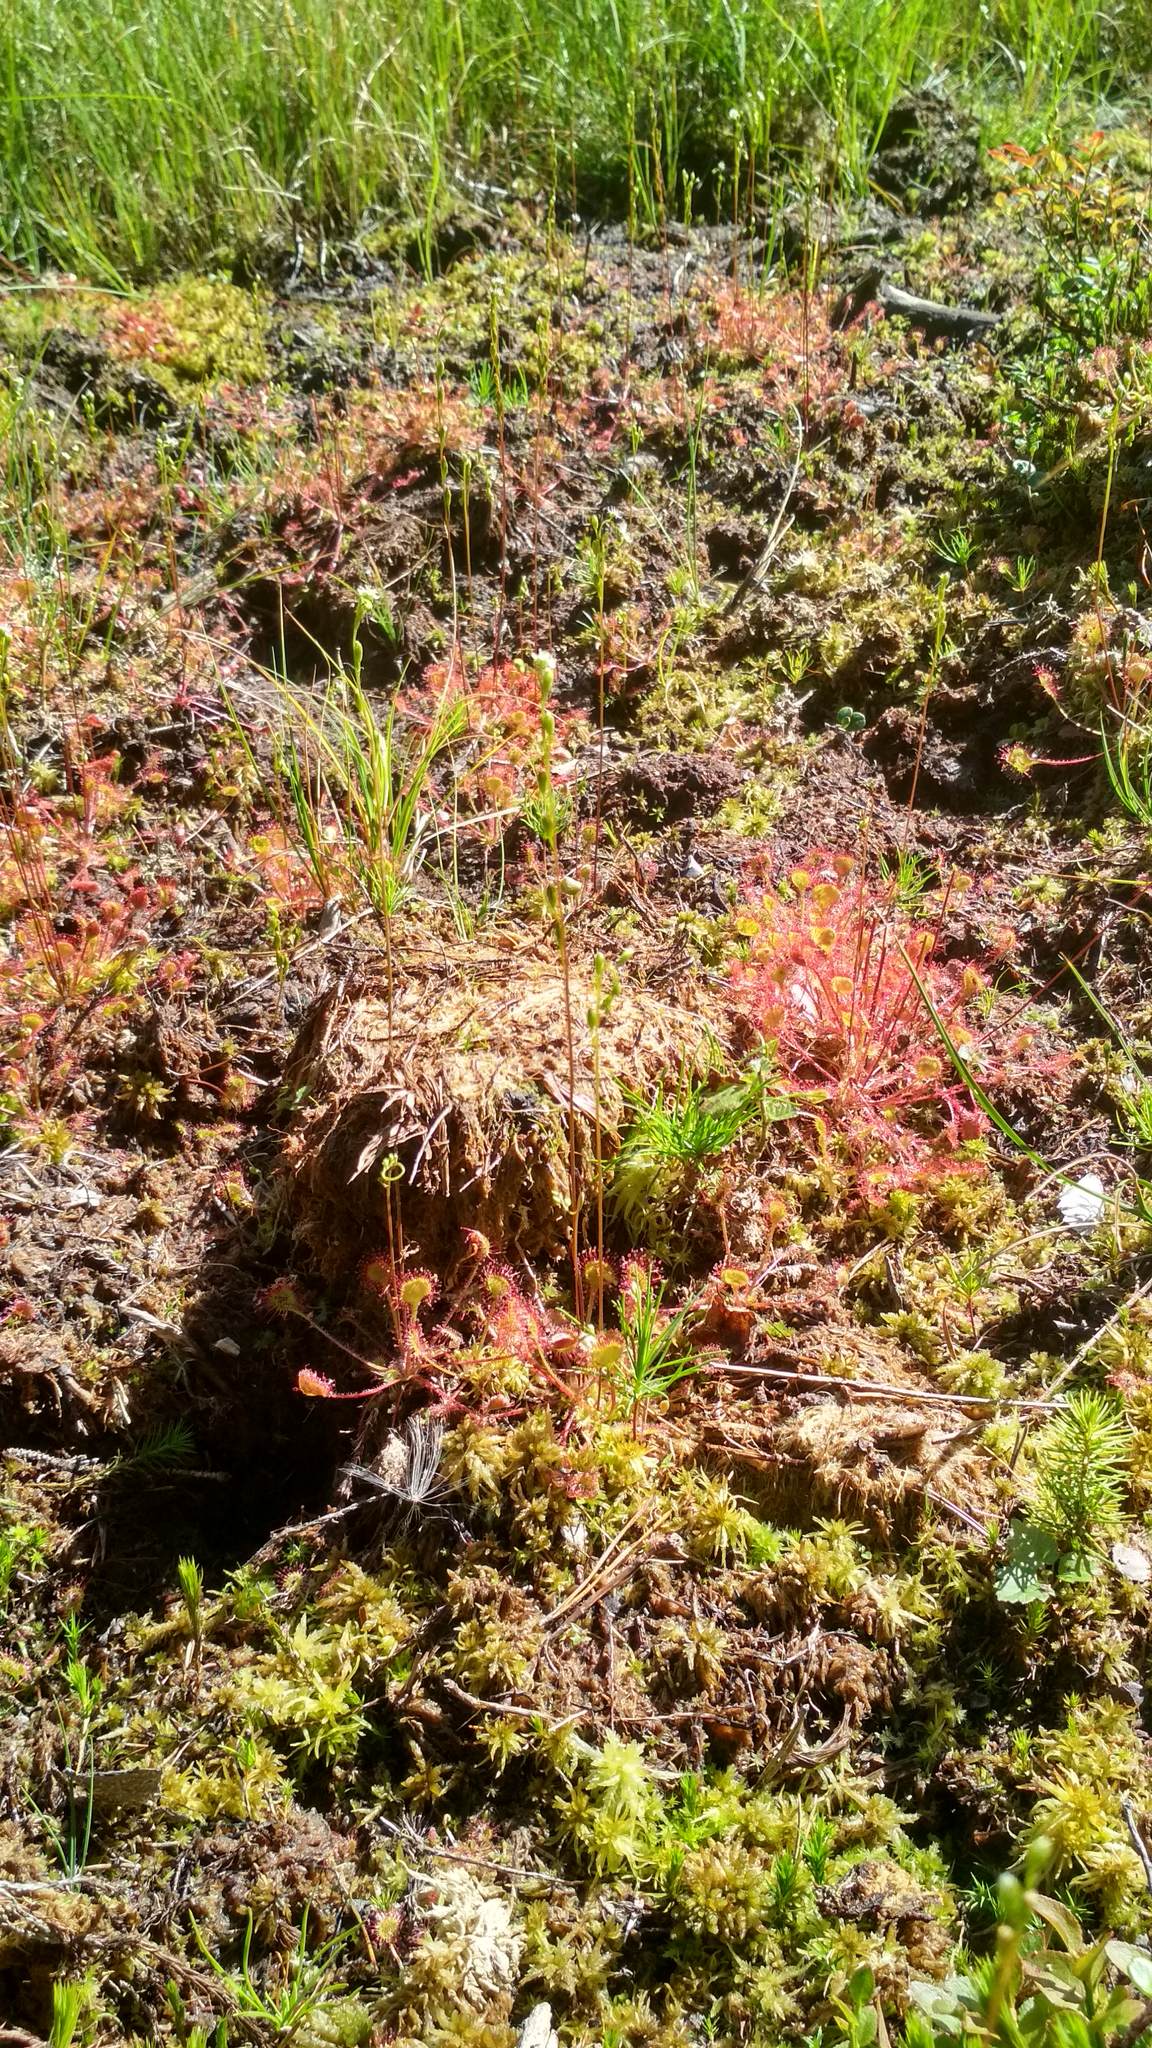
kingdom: Plantae
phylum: Tracheophyta
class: Magnoliopsida
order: Caryophyllales
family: Droseraceae
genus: Drosera
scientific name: Drosera rotundifolia
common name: Round-leaved sundew
